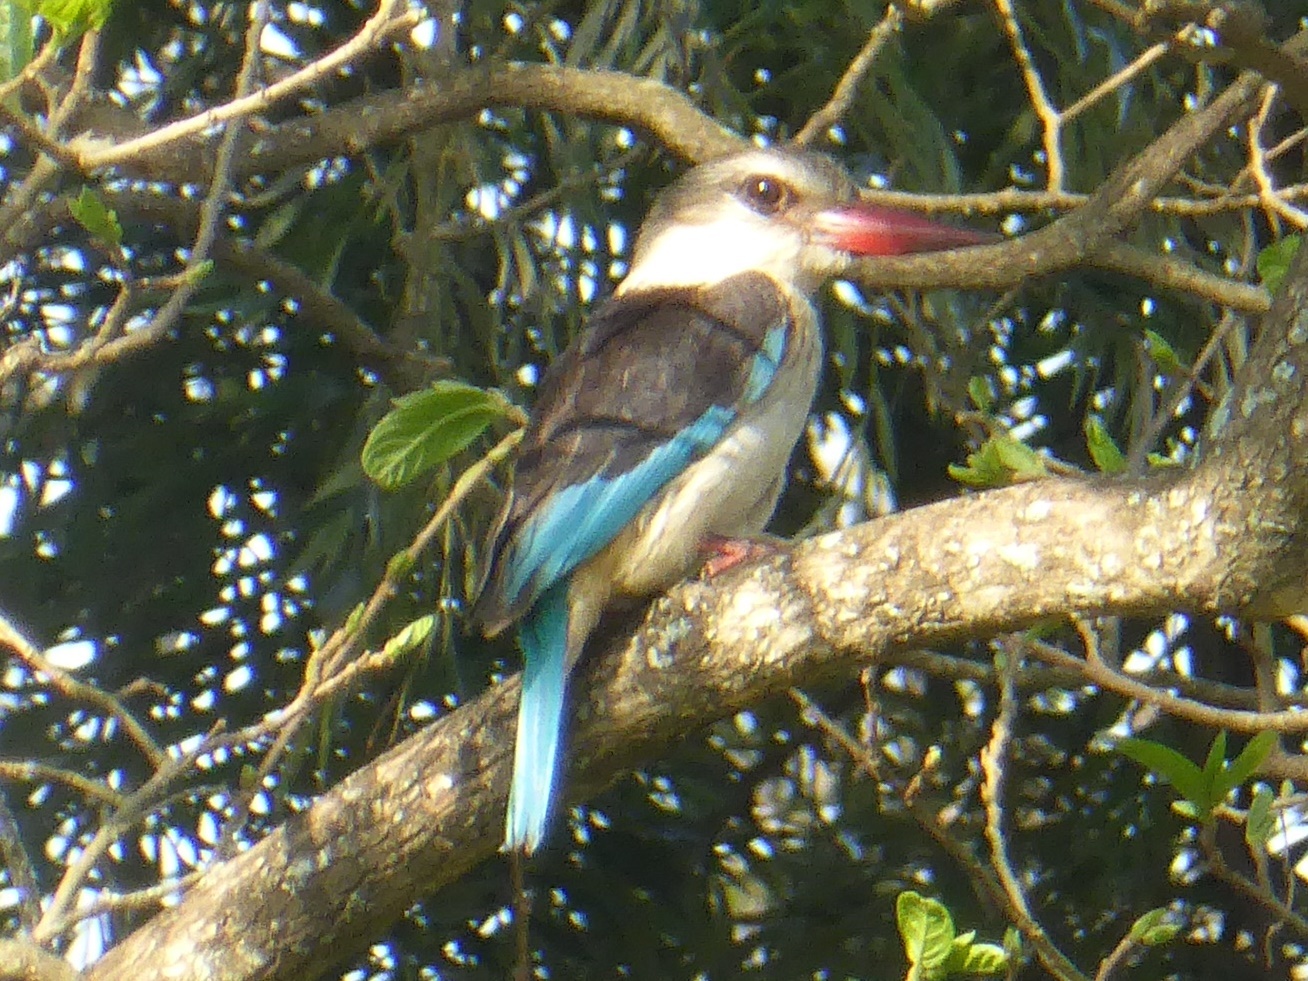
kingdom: Animalia
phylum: Chordata
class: Aves
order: Coraciiformes
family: Alcedinidae
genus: Halcyon
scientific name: Halcyon albiventris
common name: Brown-hooded kingfisher
